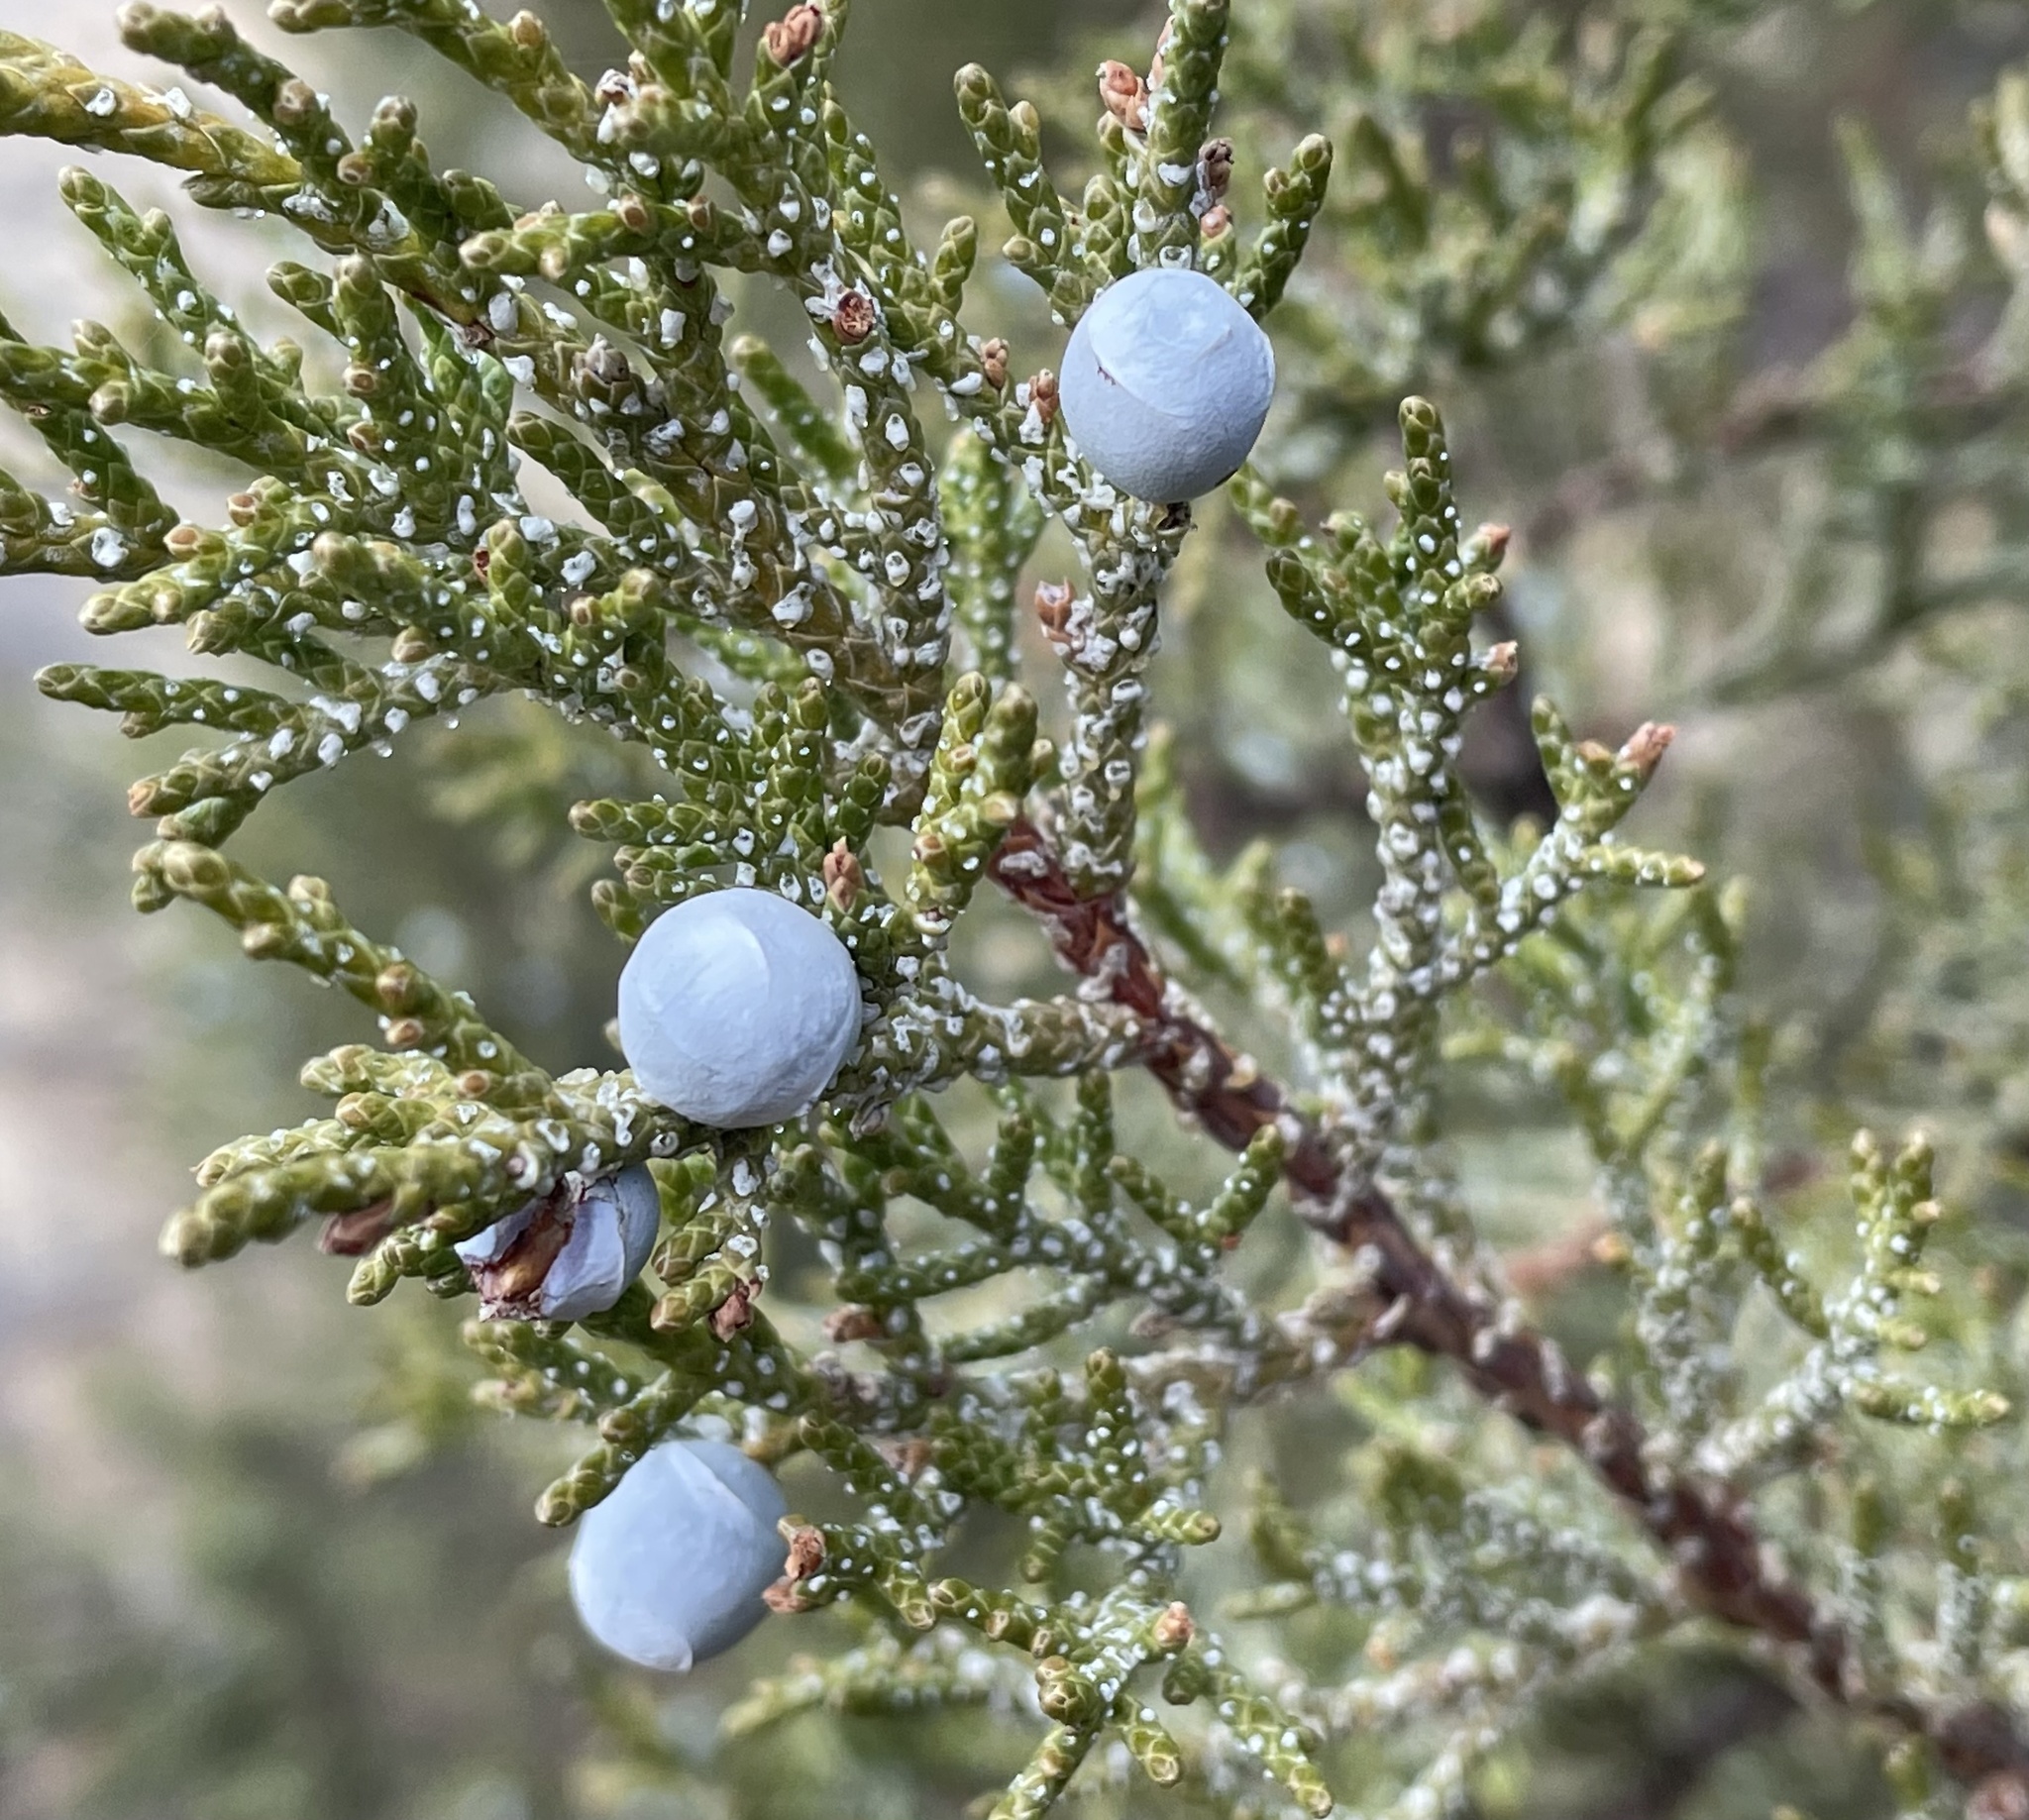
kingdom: Plantae
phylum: Tracheophyta
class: Pinopsida
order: Pinales
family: Cupressaceae
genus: Juniperus
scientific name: Juniperus occidentalis
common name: Western juniper
